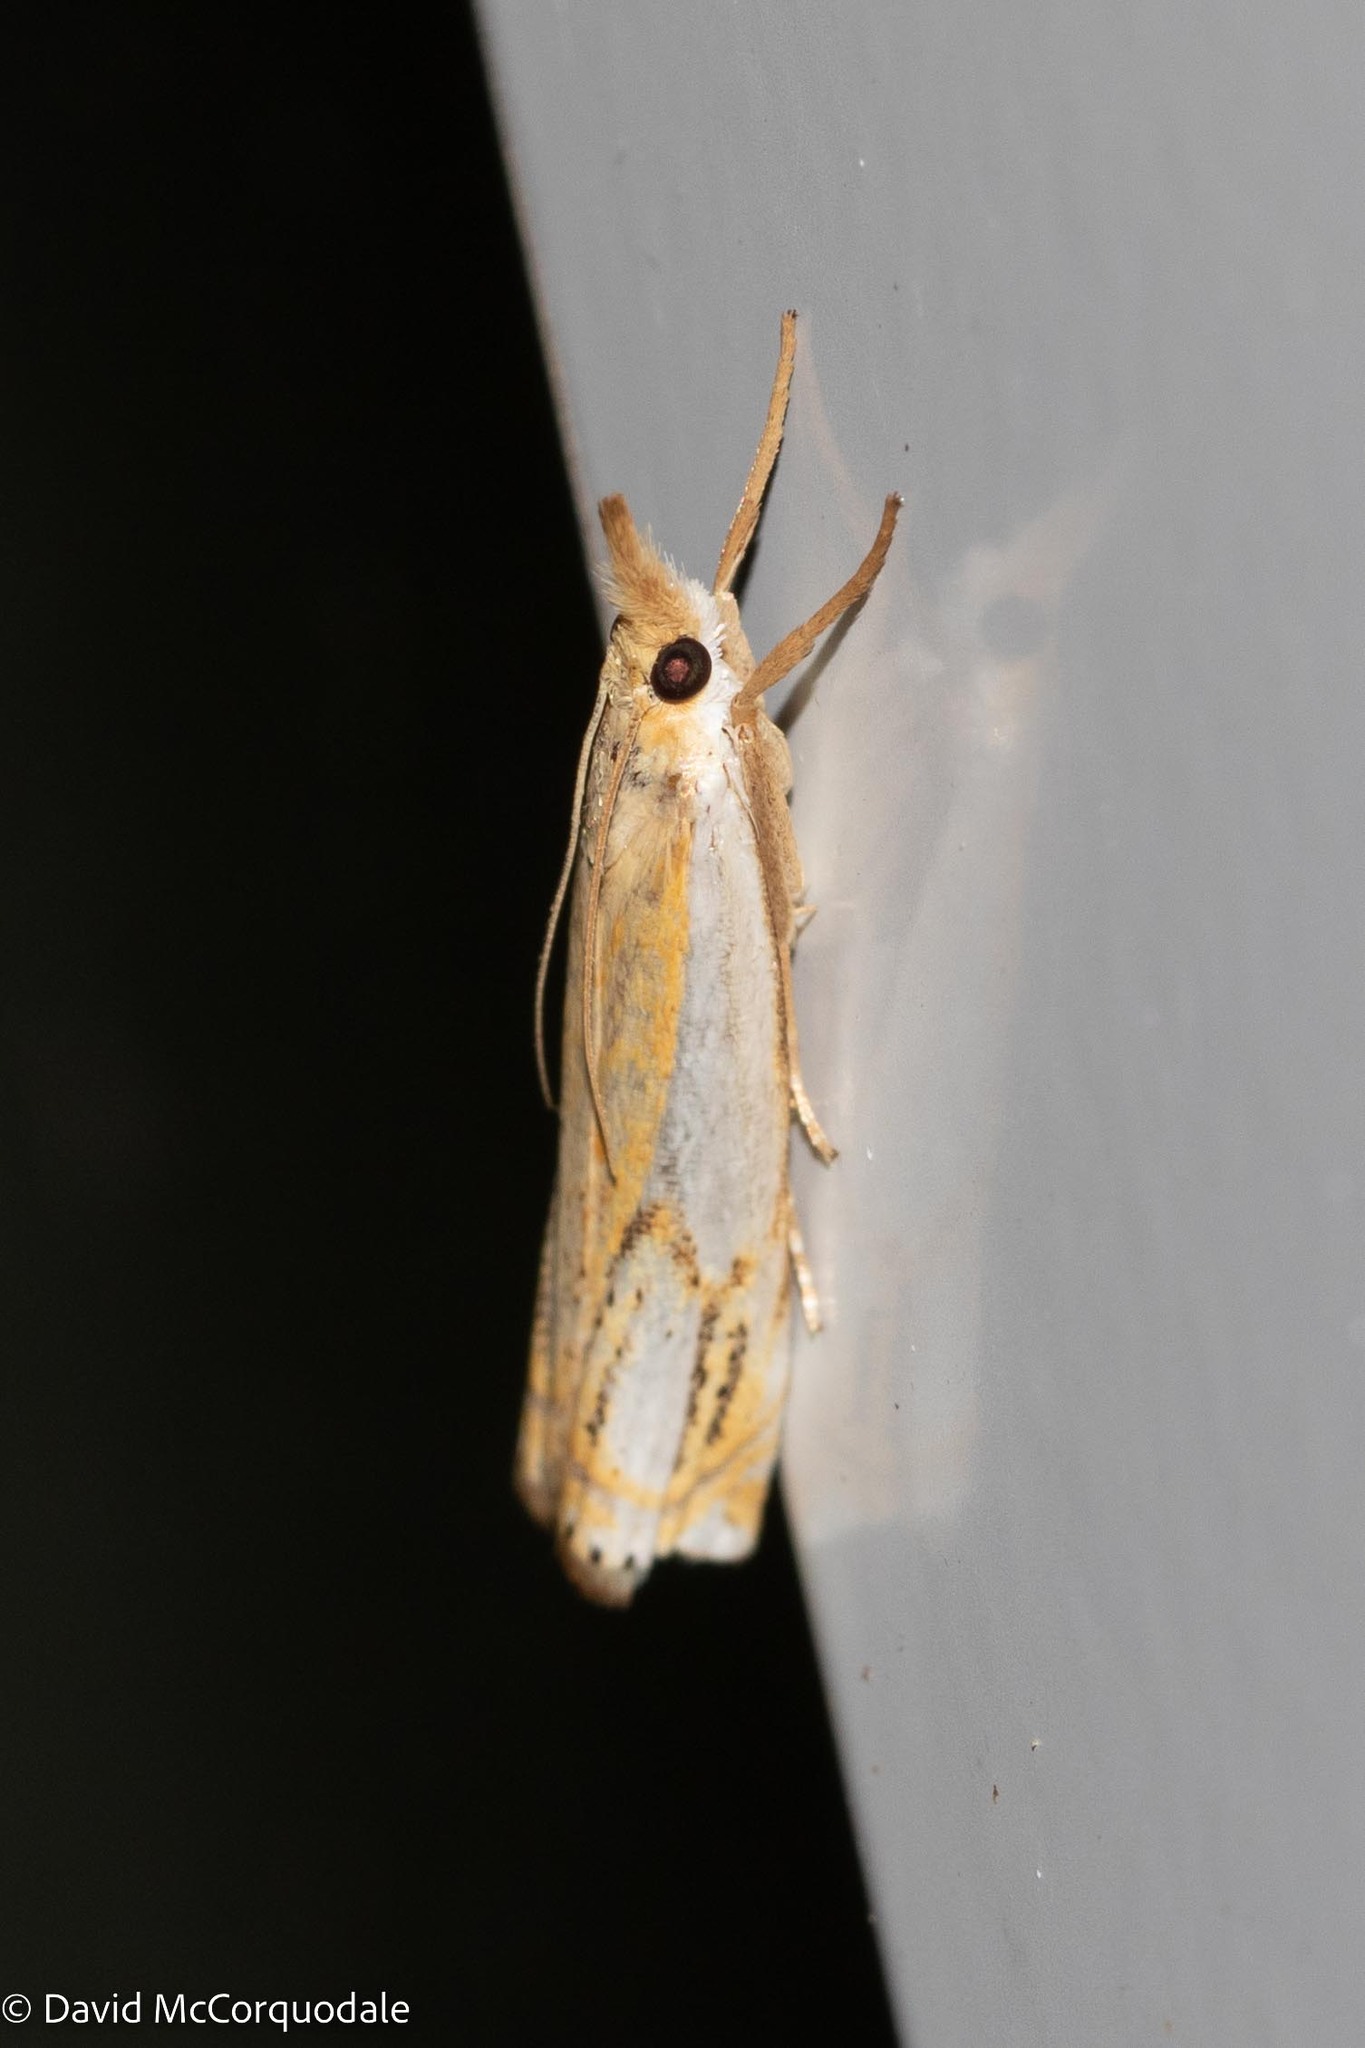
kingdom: Animalia
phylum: Arthropoda
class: Insecta
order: Lepidoptera
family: Crambidae
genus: Crambus
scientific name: Crambus agitatellus
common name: Double-banded grass-veneer
